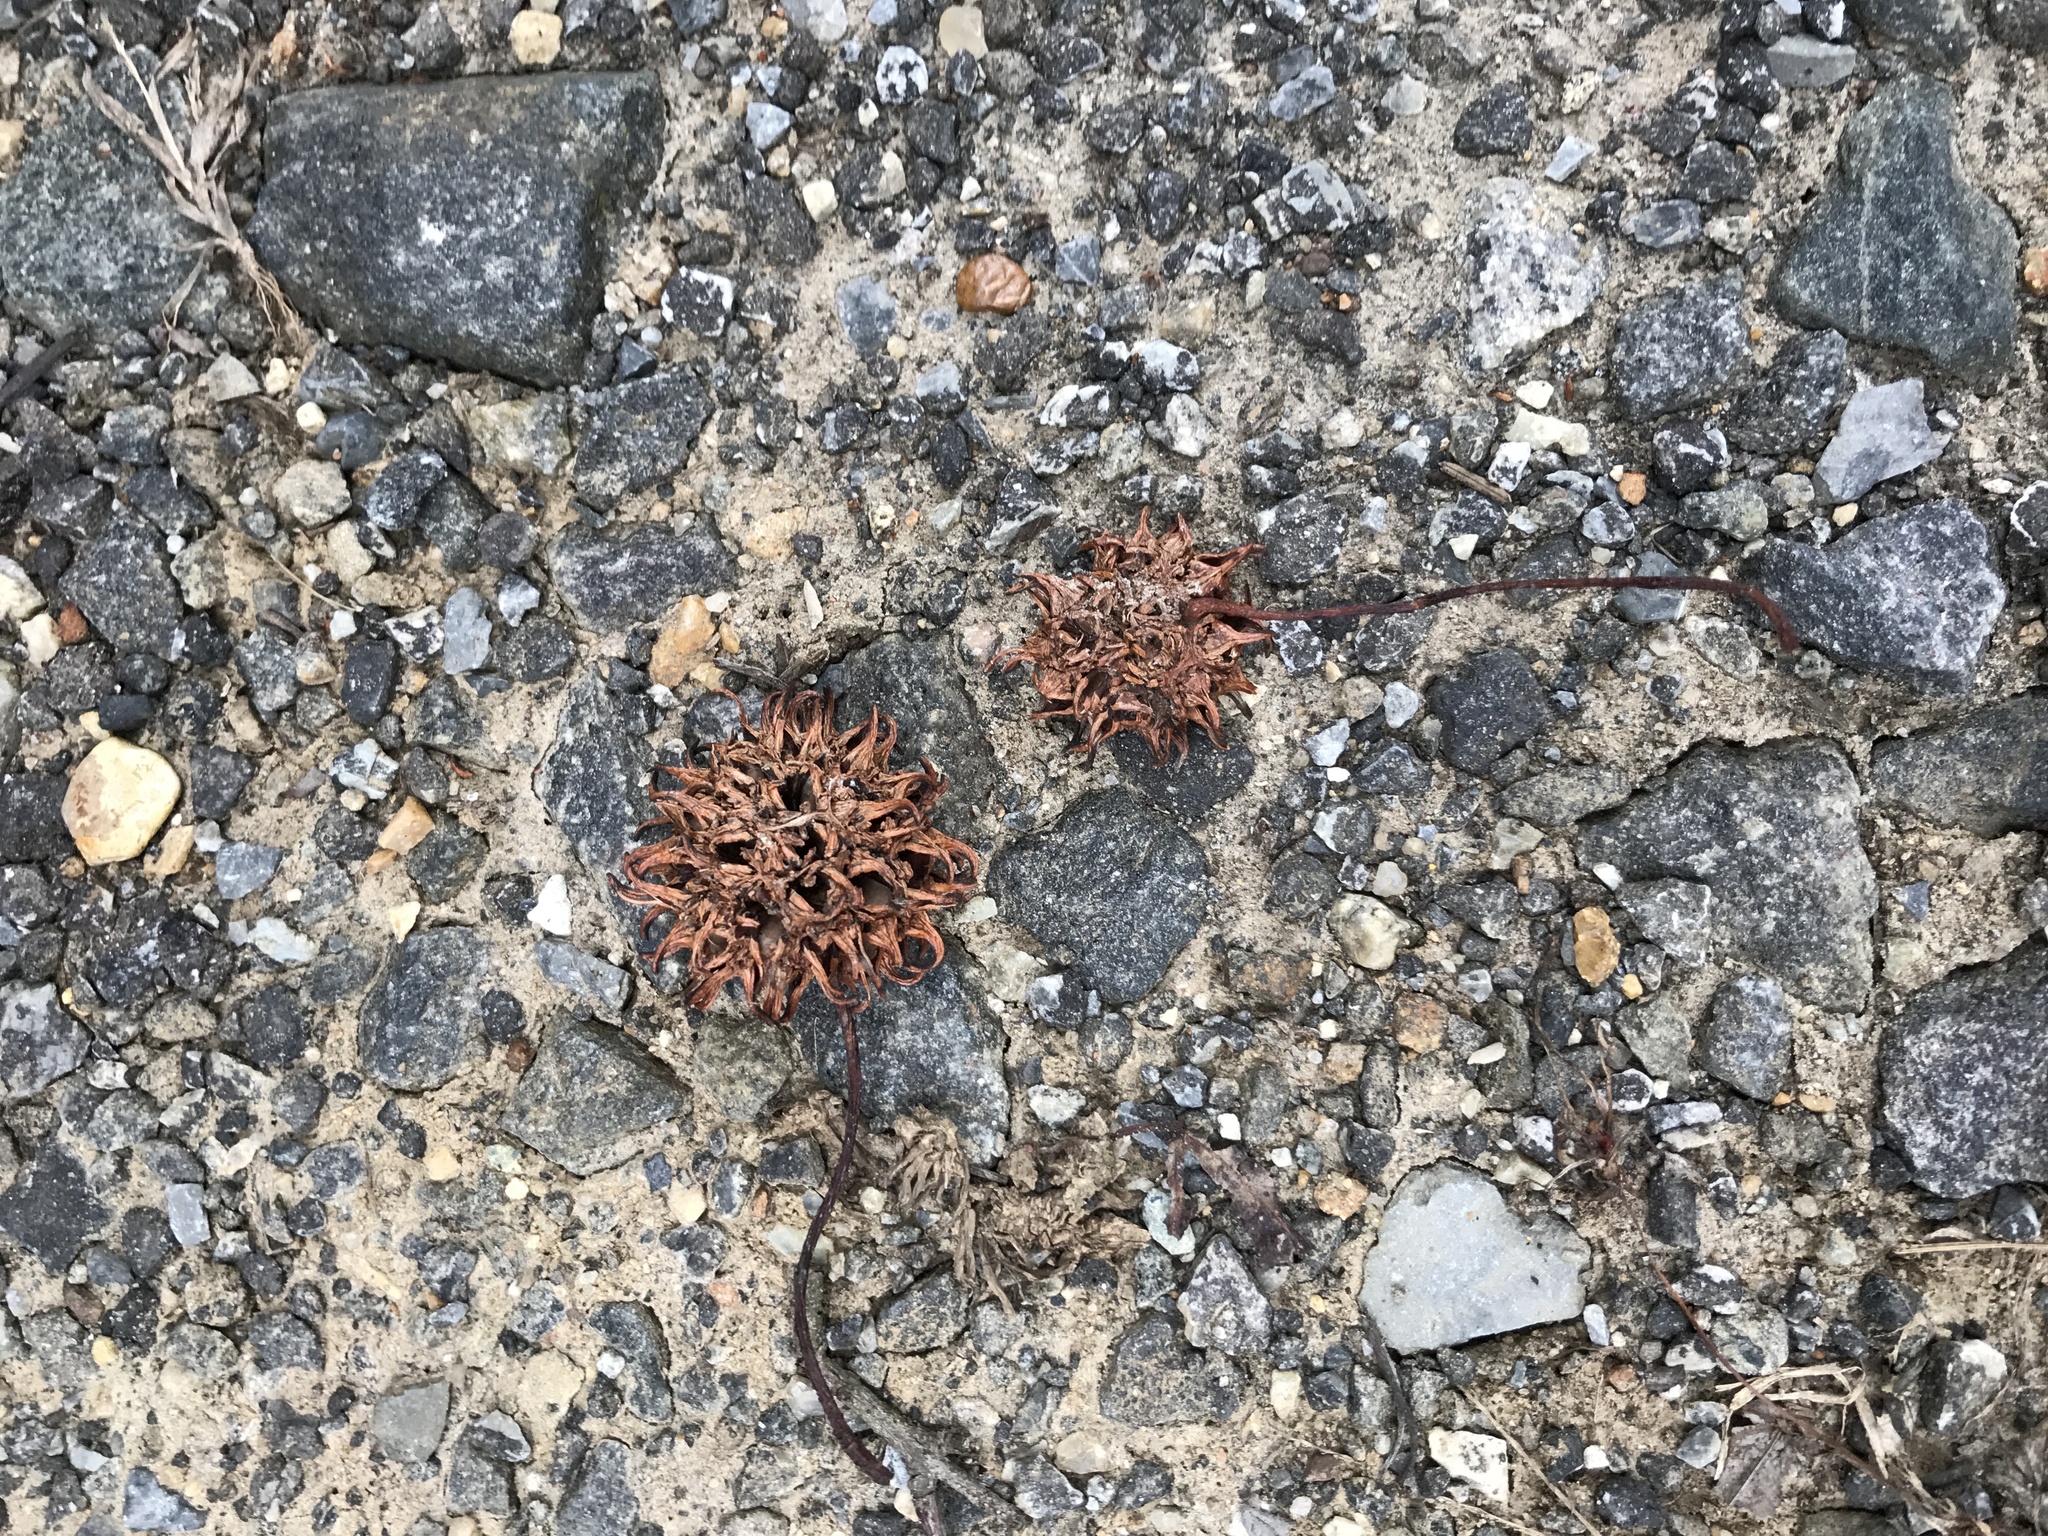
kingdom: Plantae
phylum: Tracheophyta
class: Magnoliopsida
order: Saxifragales
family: Altingiaceae
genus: Liquidambar
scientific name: Liquidambar styraciflua
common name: Sweet gum
